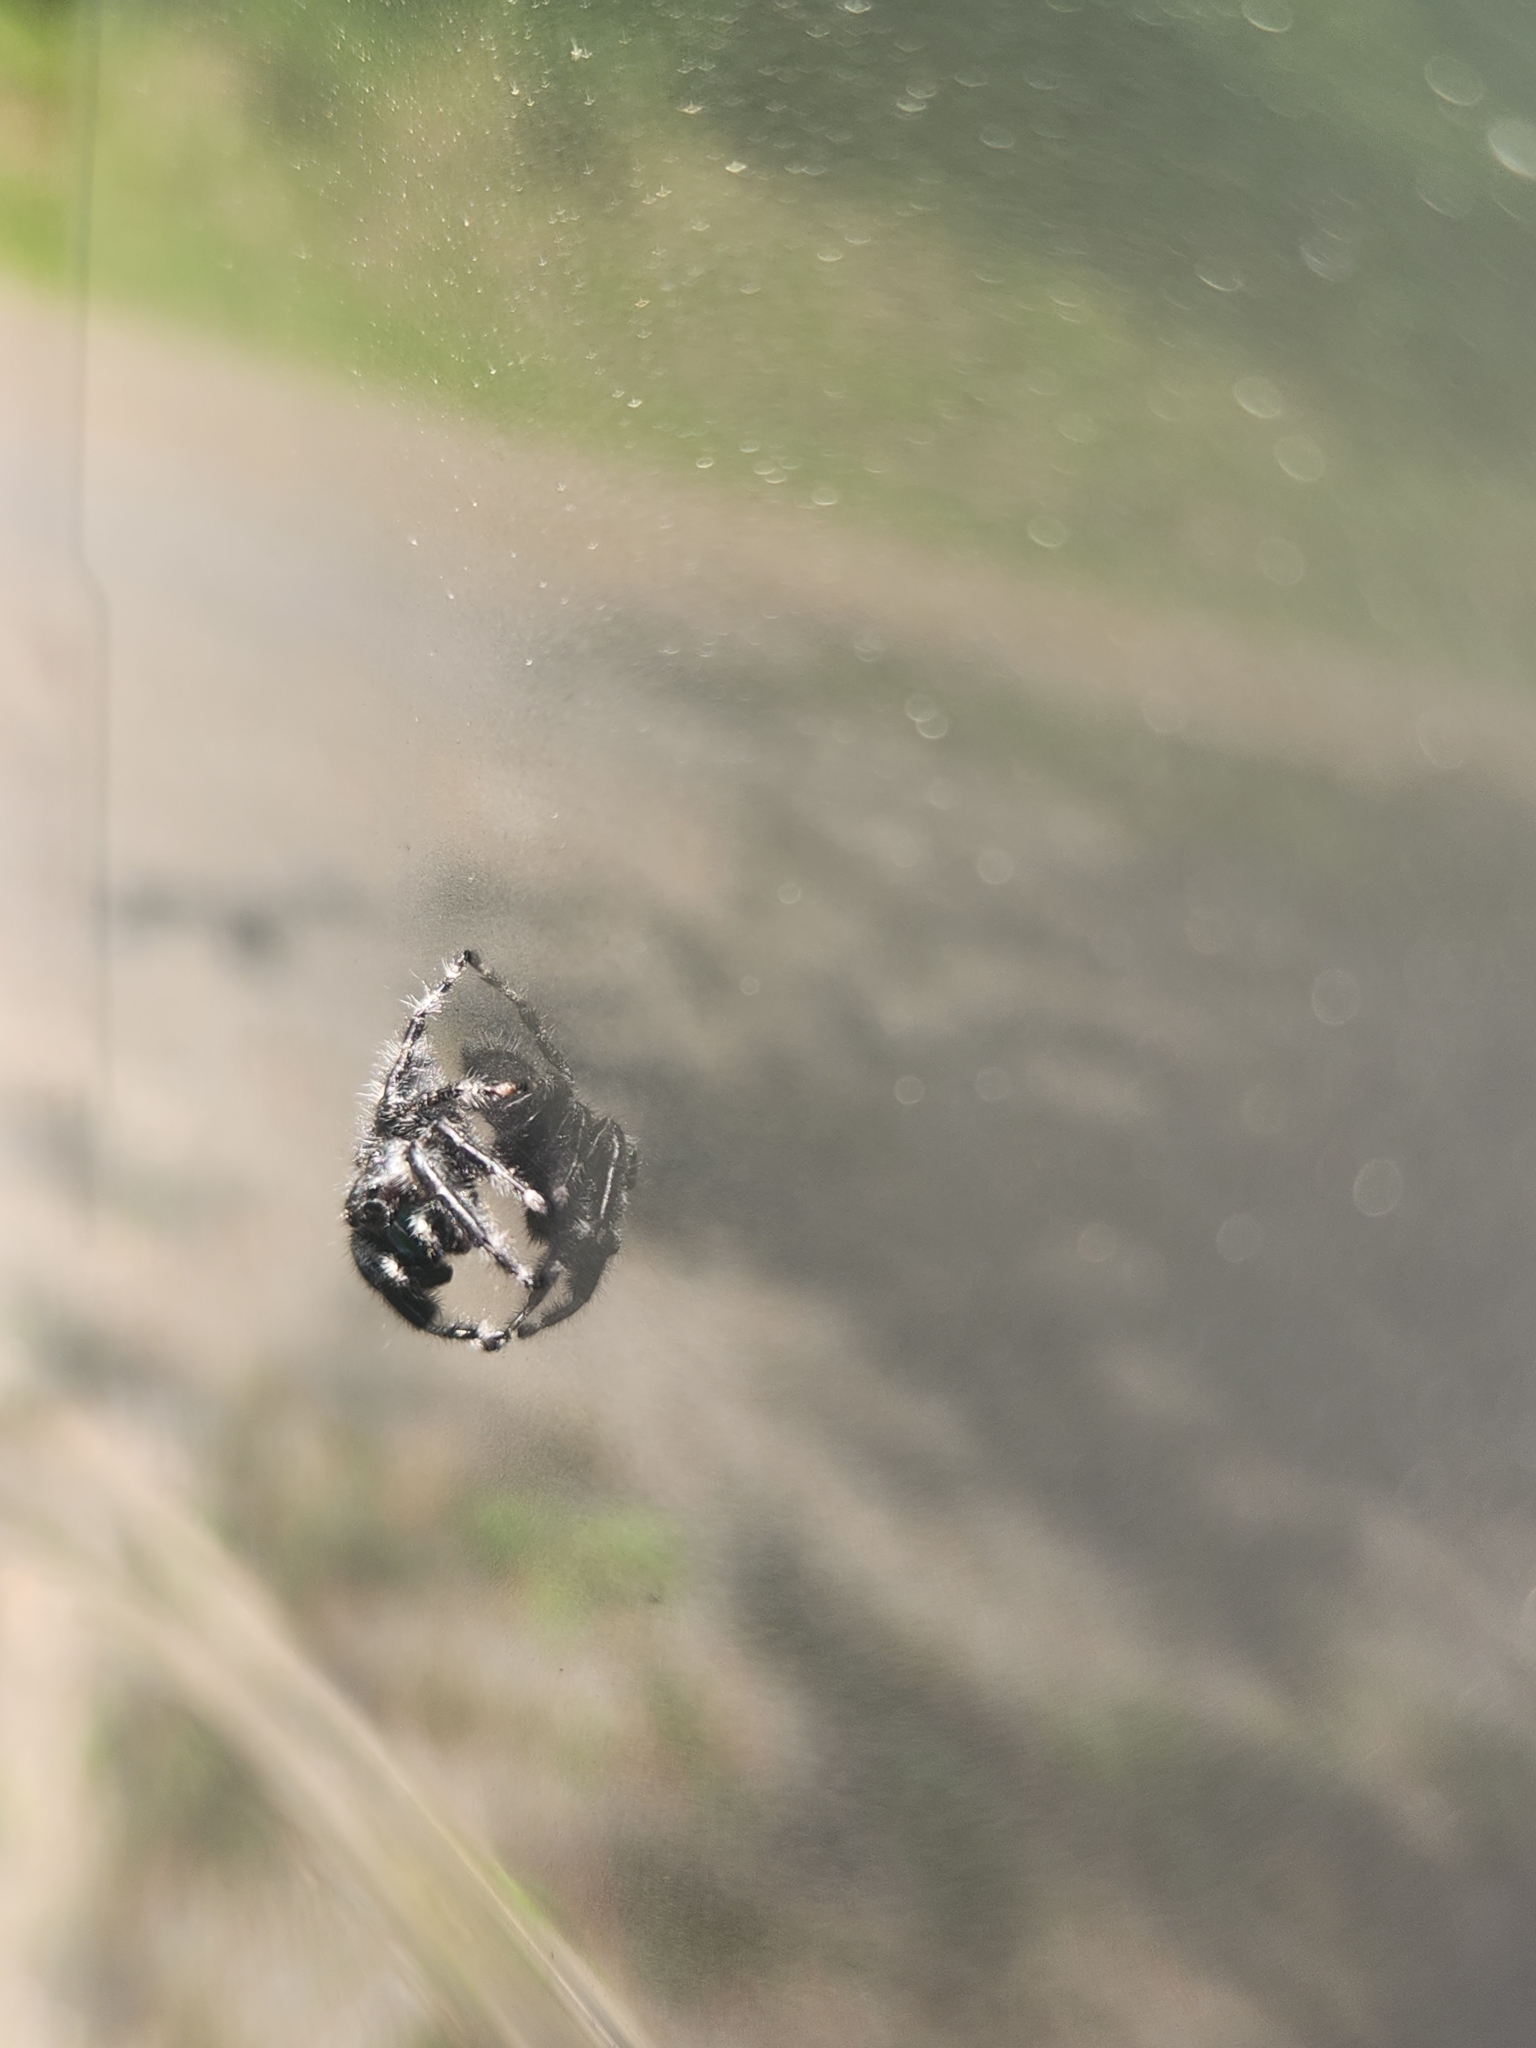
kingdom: Animalia
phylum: Arthropoda
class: Arachnida
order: Araneae
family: Salticidae
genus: Phidippus
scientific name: Phidippus audax
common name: Bold jumper
